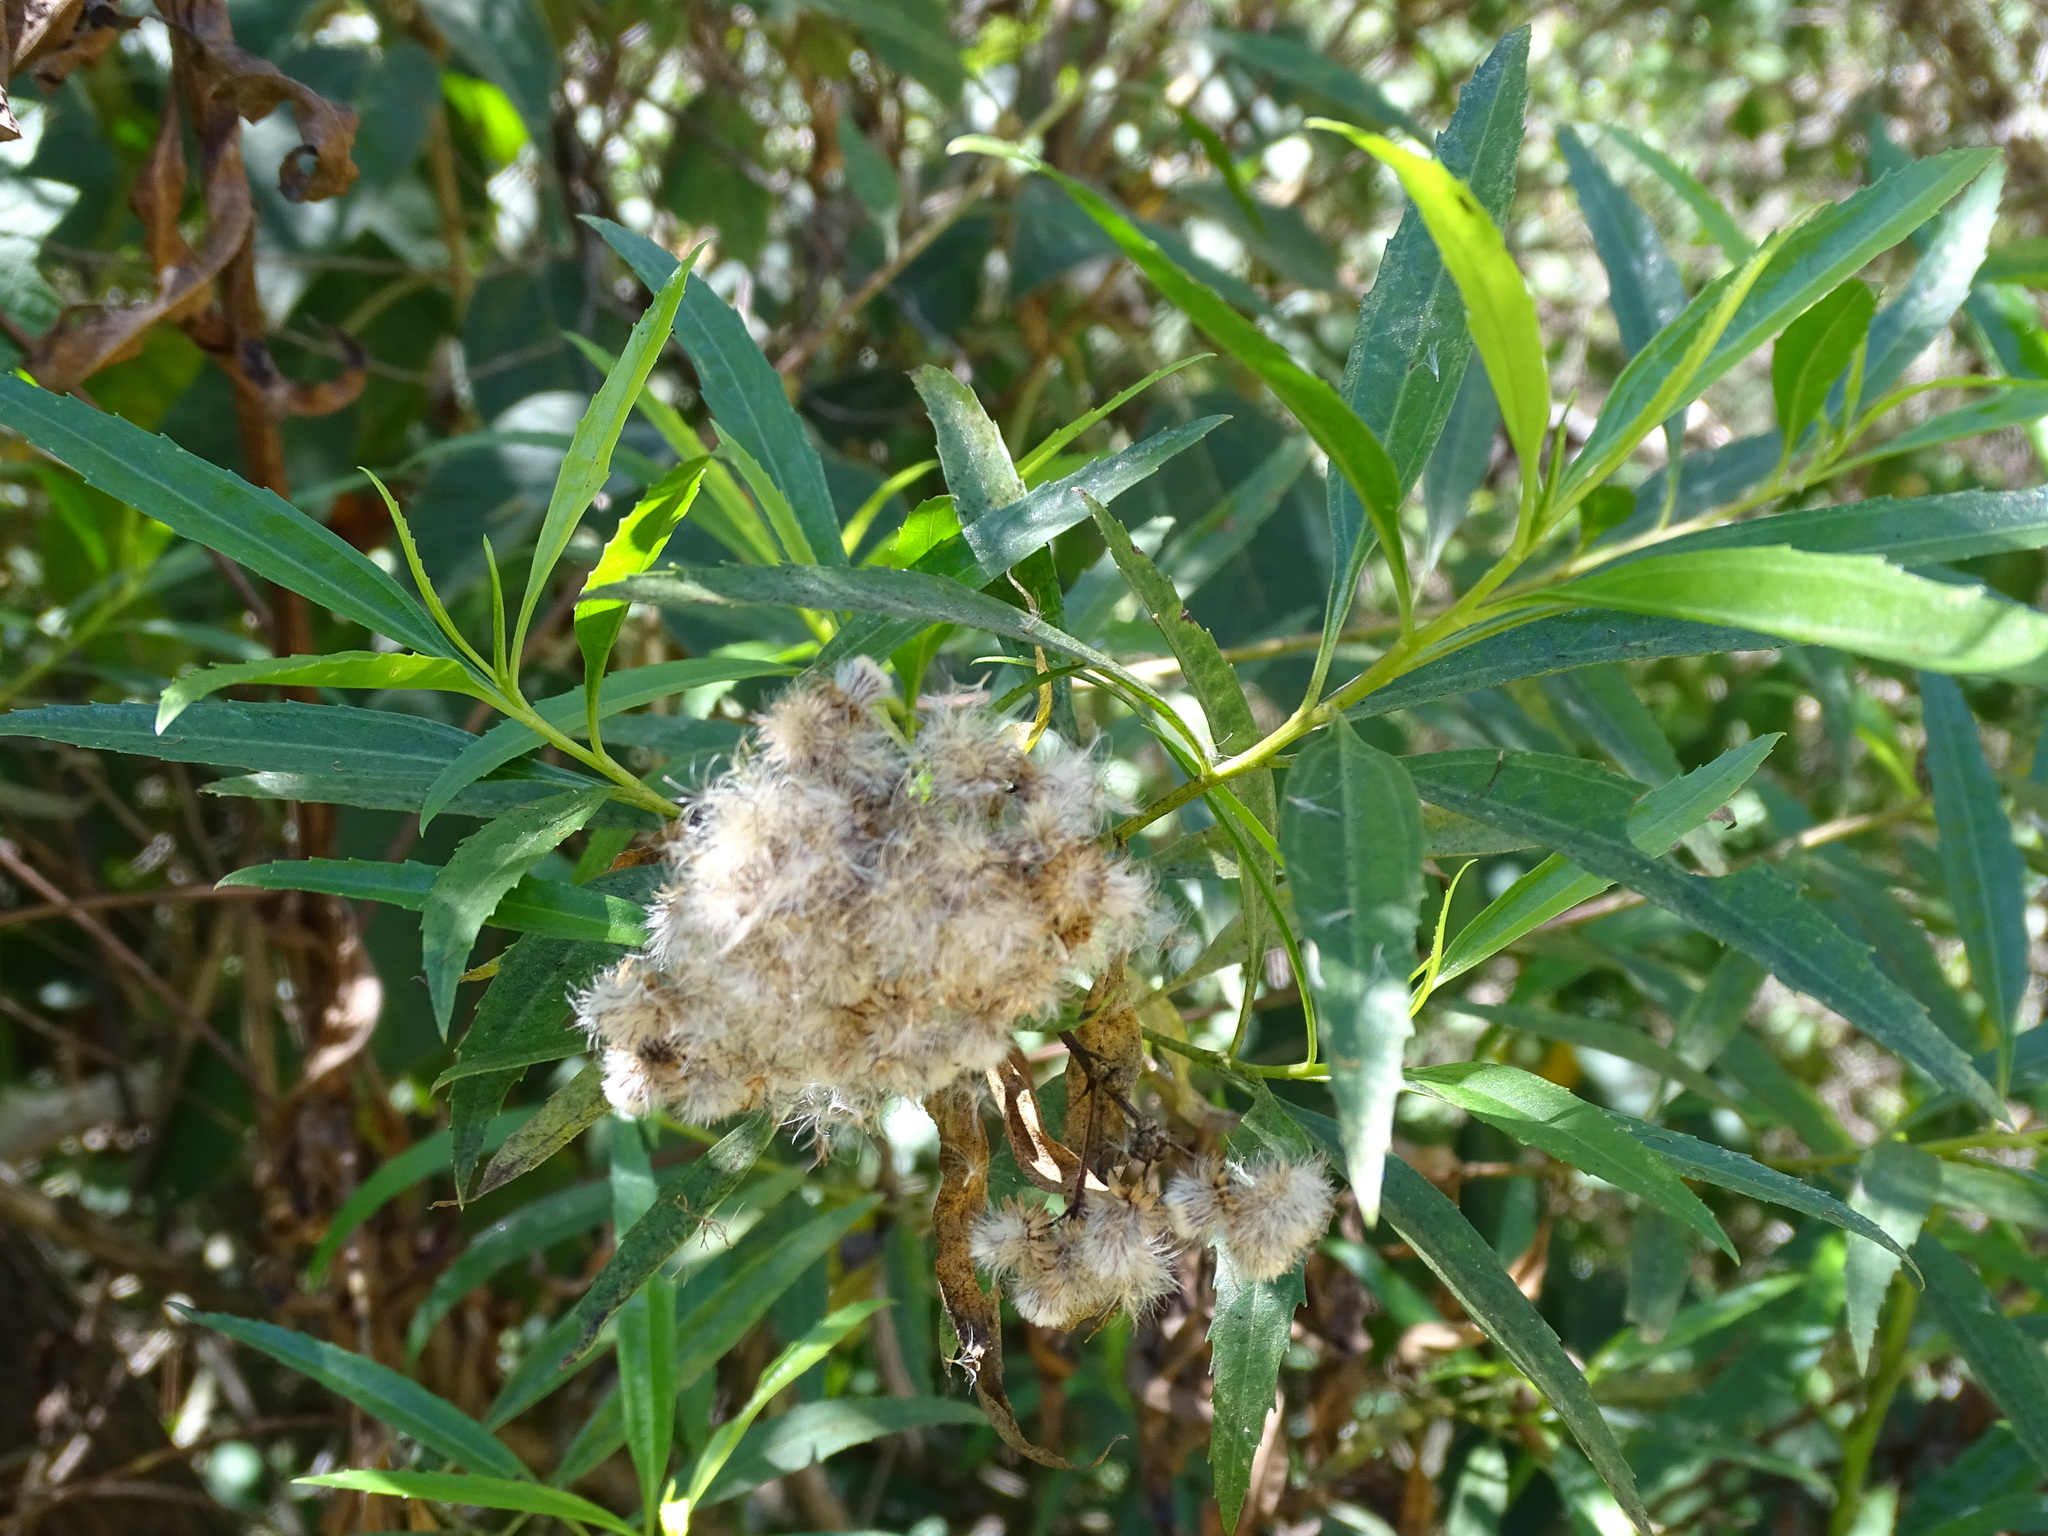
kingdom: Plantae
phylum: Tracheophyta
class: Magnoliopsida
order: Asterales
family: Asteraceae
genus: Baccharis
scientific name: Baccharis salicifolia
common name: Sticky baccharis
